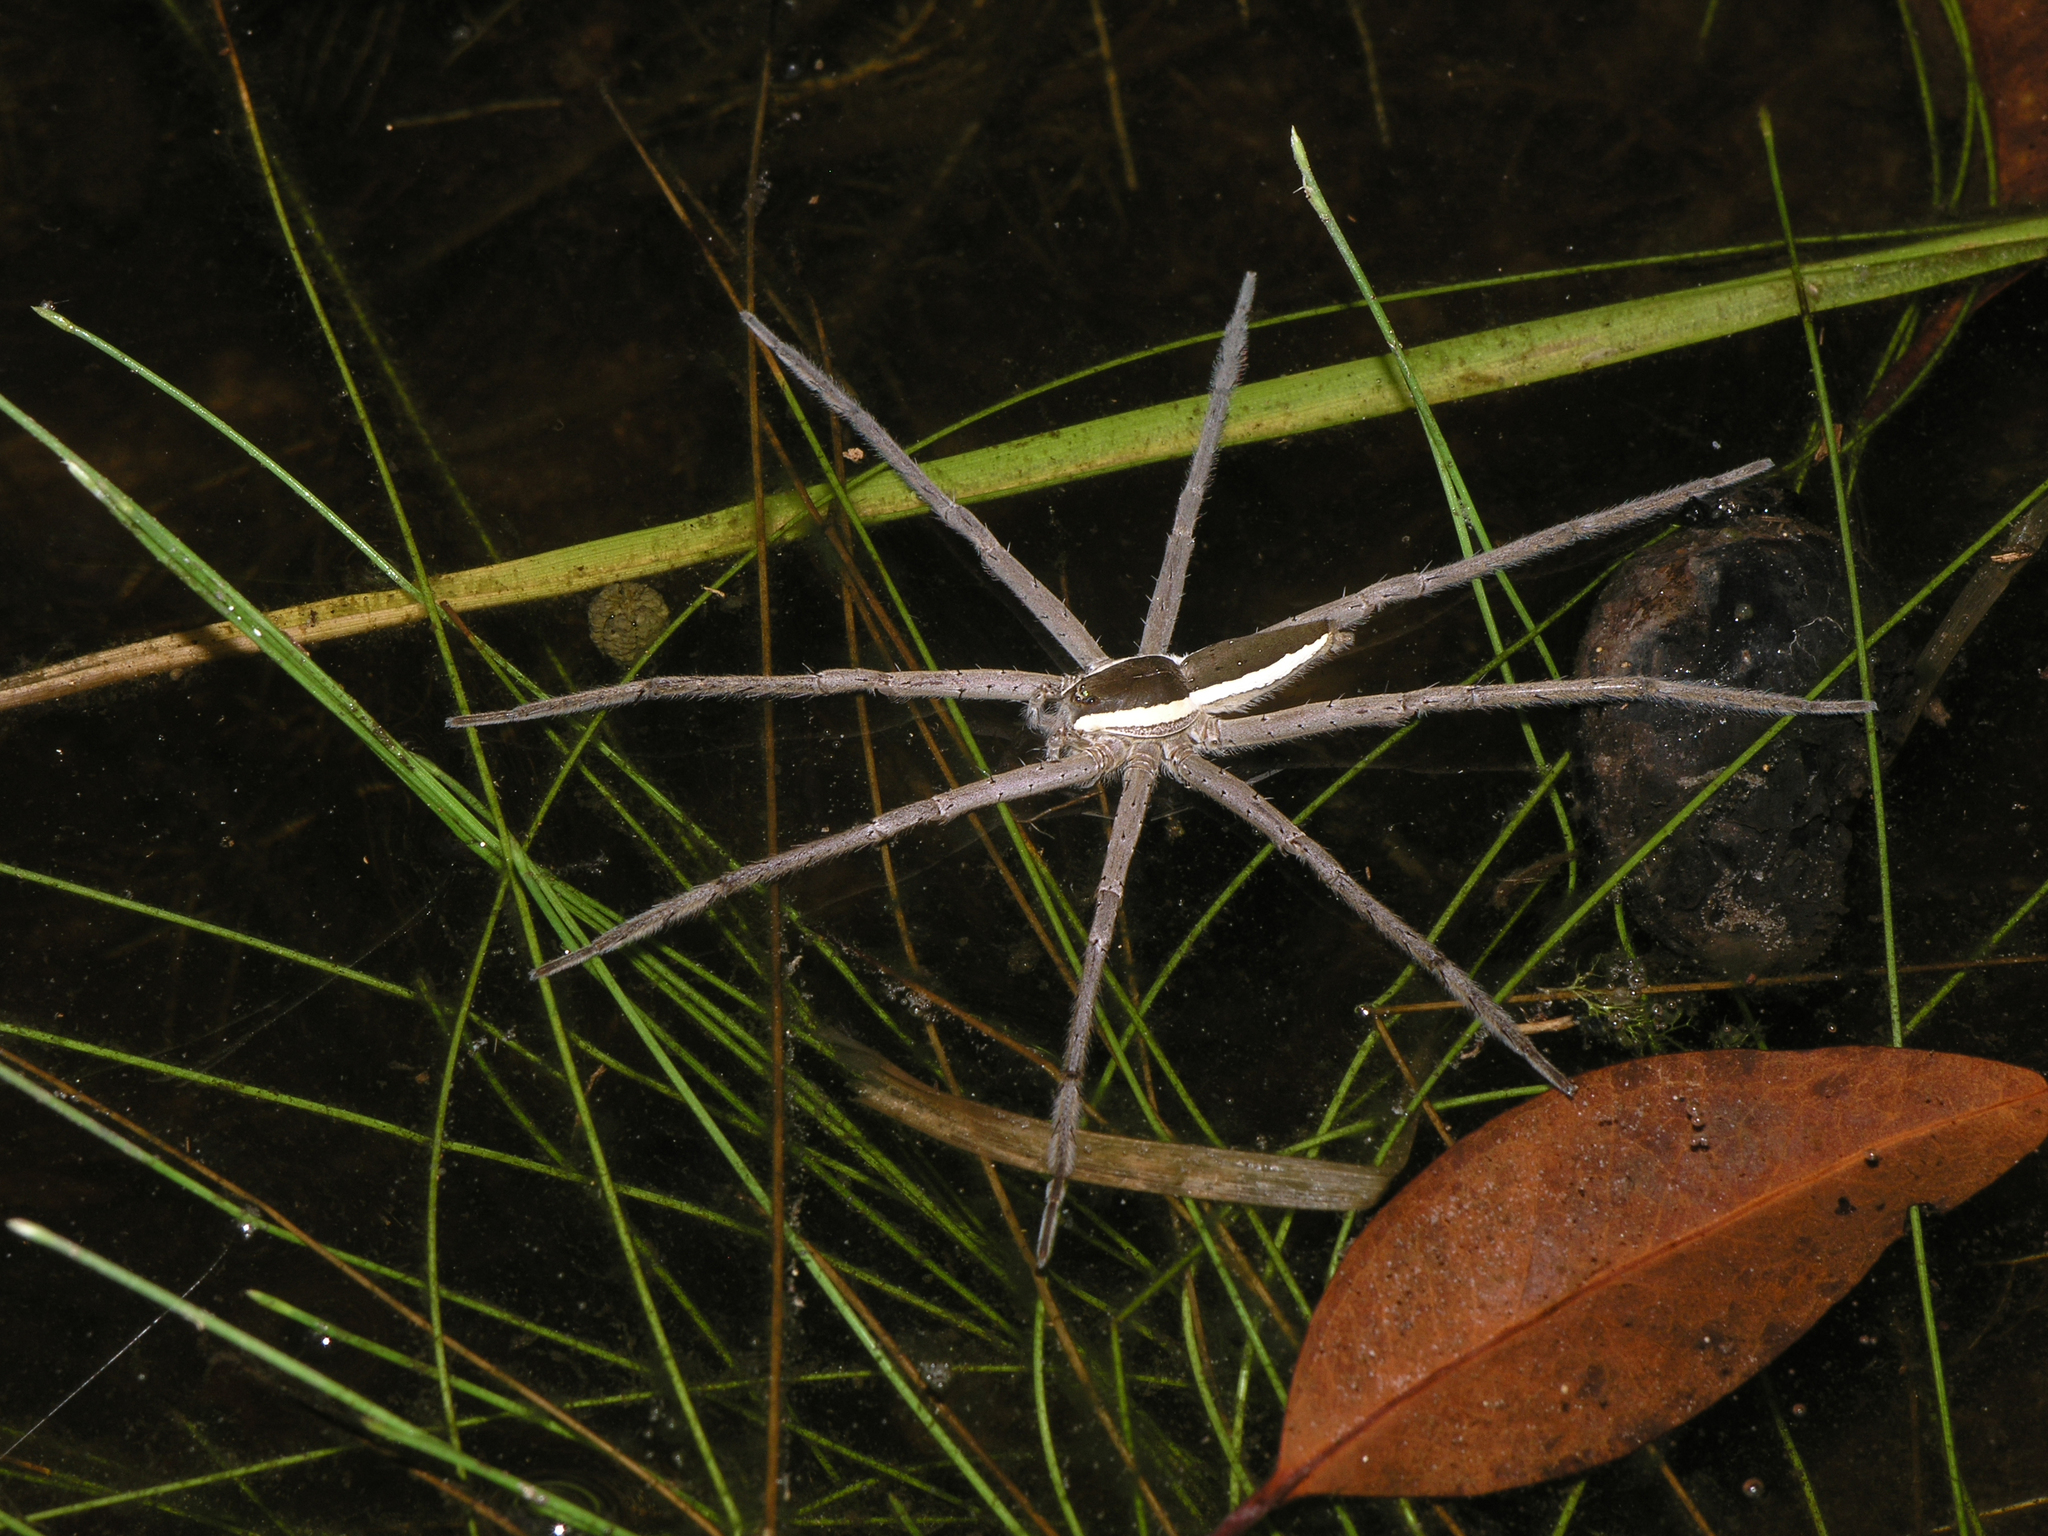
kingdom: Animalia
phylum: Arthropoda
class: Arachnida
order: Araneae
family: Pisauridae
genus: Nilus
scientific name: Nilus albocinctus
